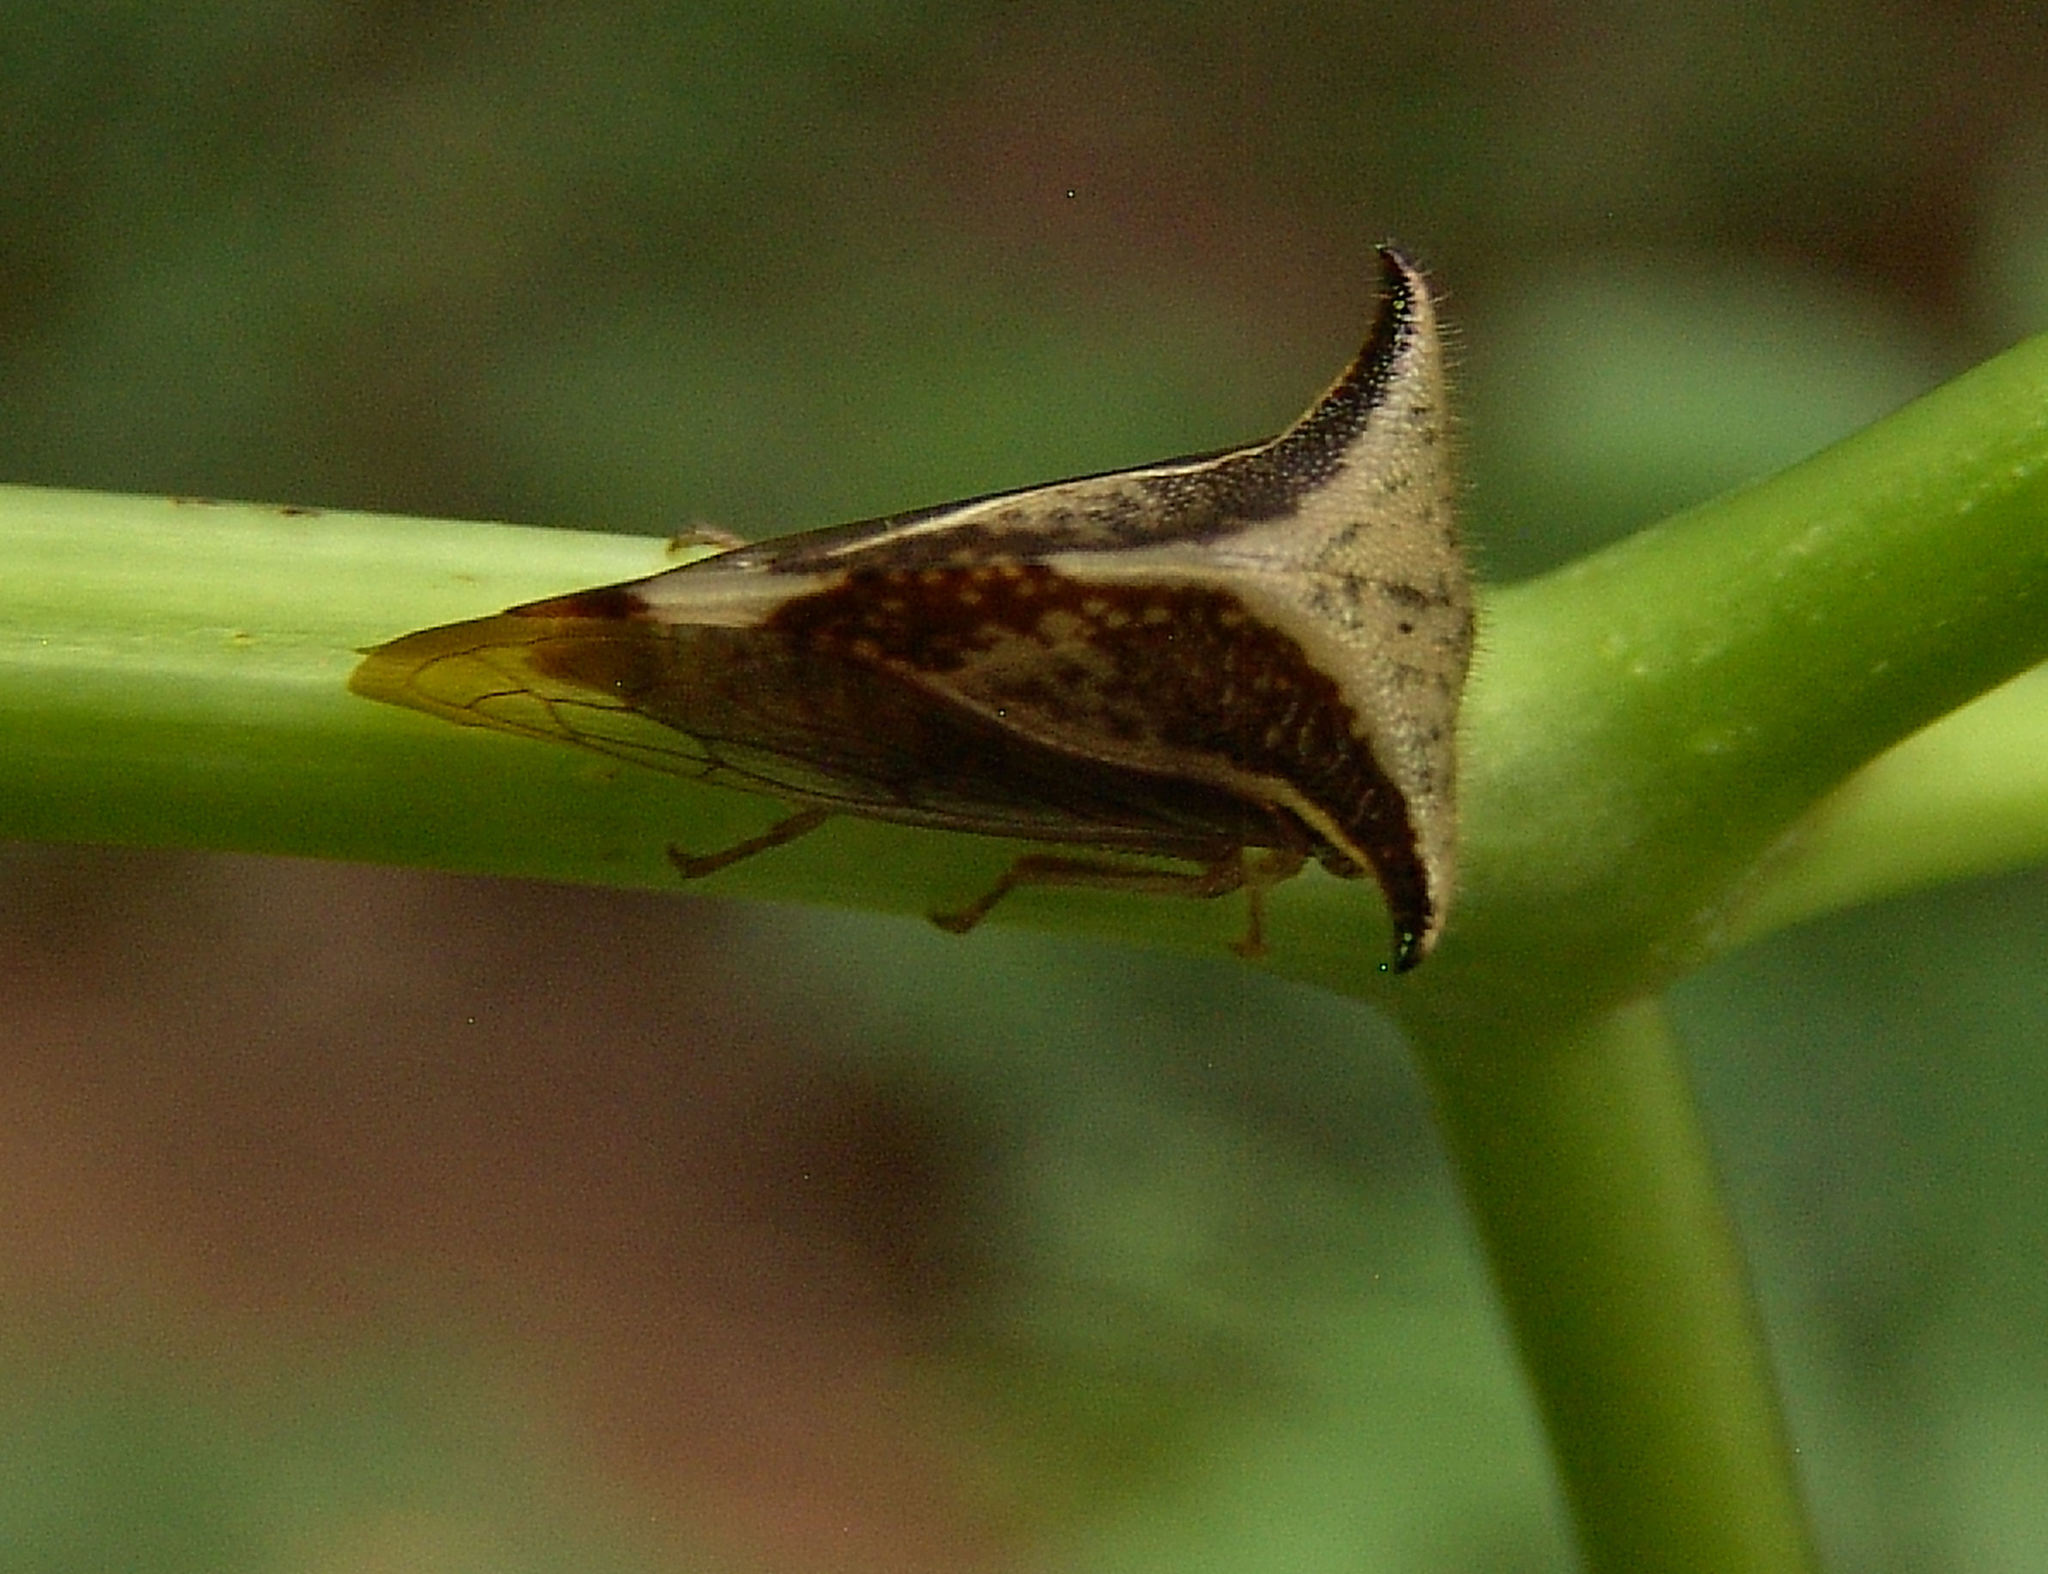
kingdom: Animalia
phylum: Arthropoda
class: Insecta
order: Hemiptera
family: Membracidae
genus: Stictocephala
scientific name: Stictocephala diceros
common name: Two-horned treehopper
